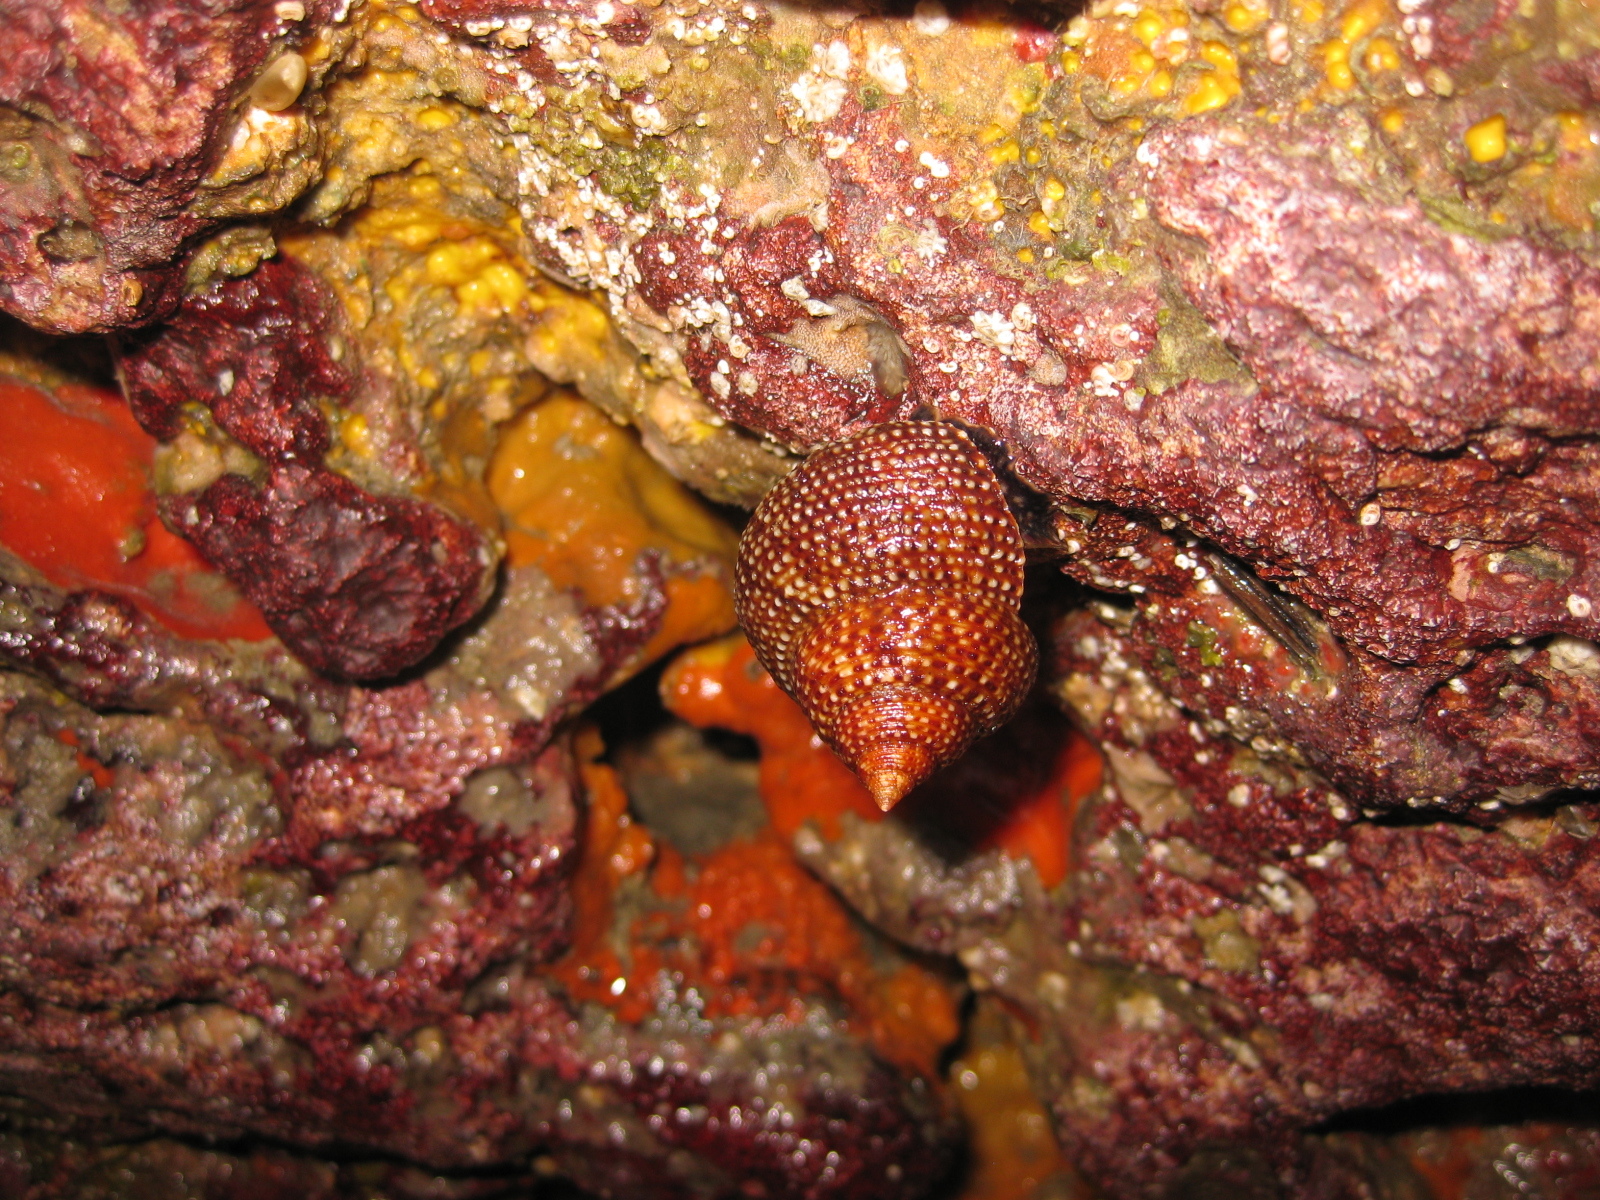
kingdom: Animalia
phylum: Mollusca
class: Gastropoda
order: Trochida
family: Calliostomatidae
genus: Maurea
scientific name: Maurea punctulata
